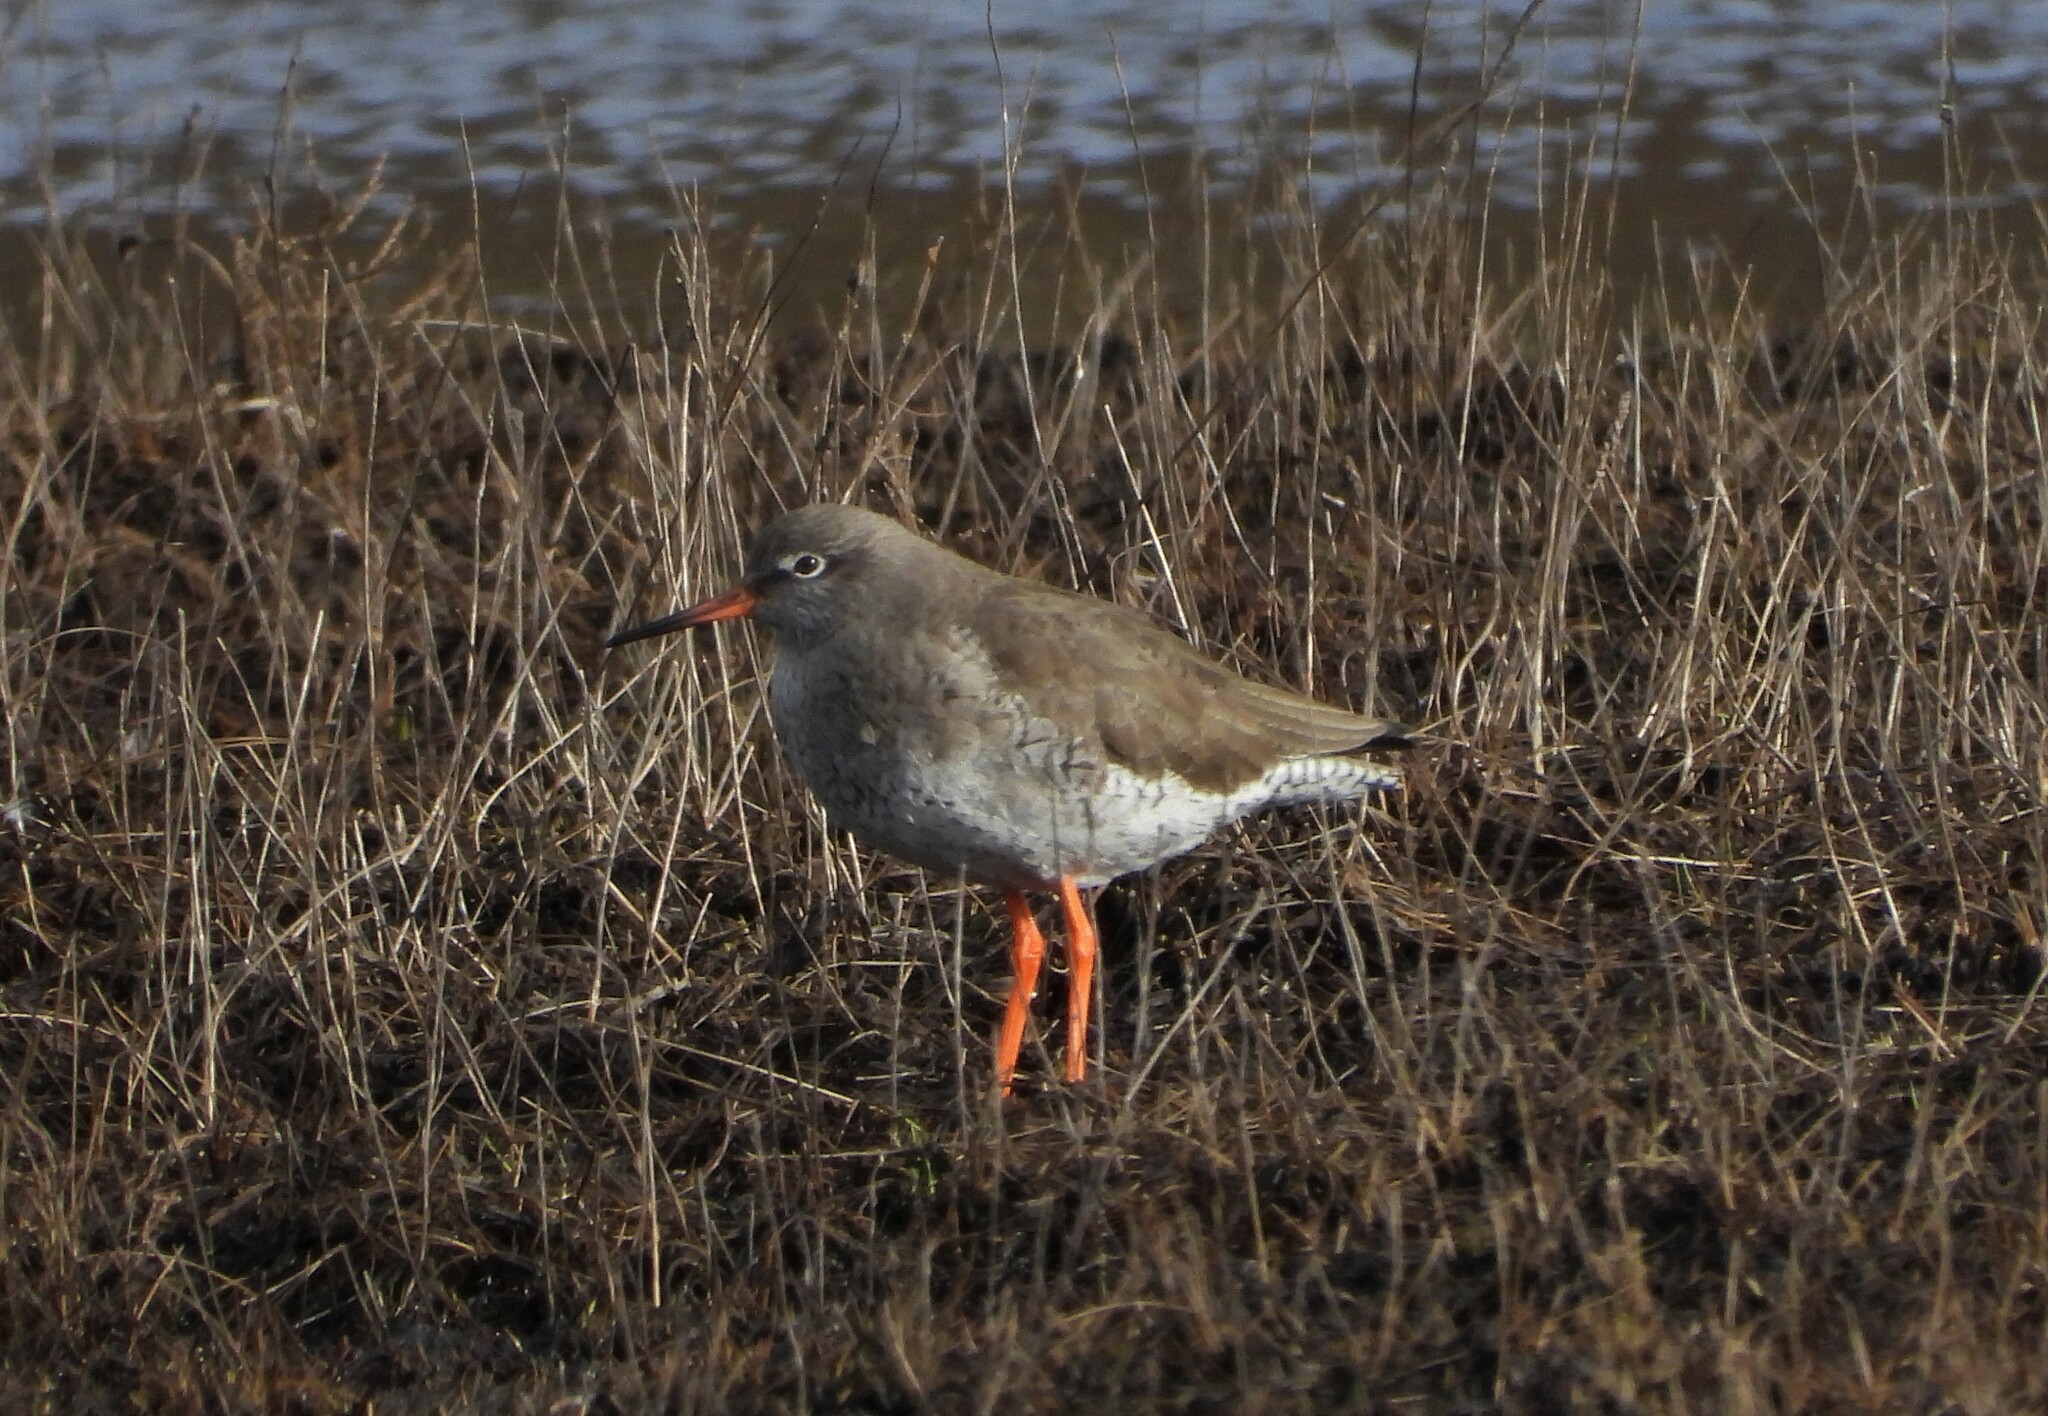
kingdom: Animalia
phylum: Chordata
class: Aves
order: Charadriiformes
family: Scolopacidae
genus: Tringa
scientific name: Tringa totanus
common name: Common redshank
